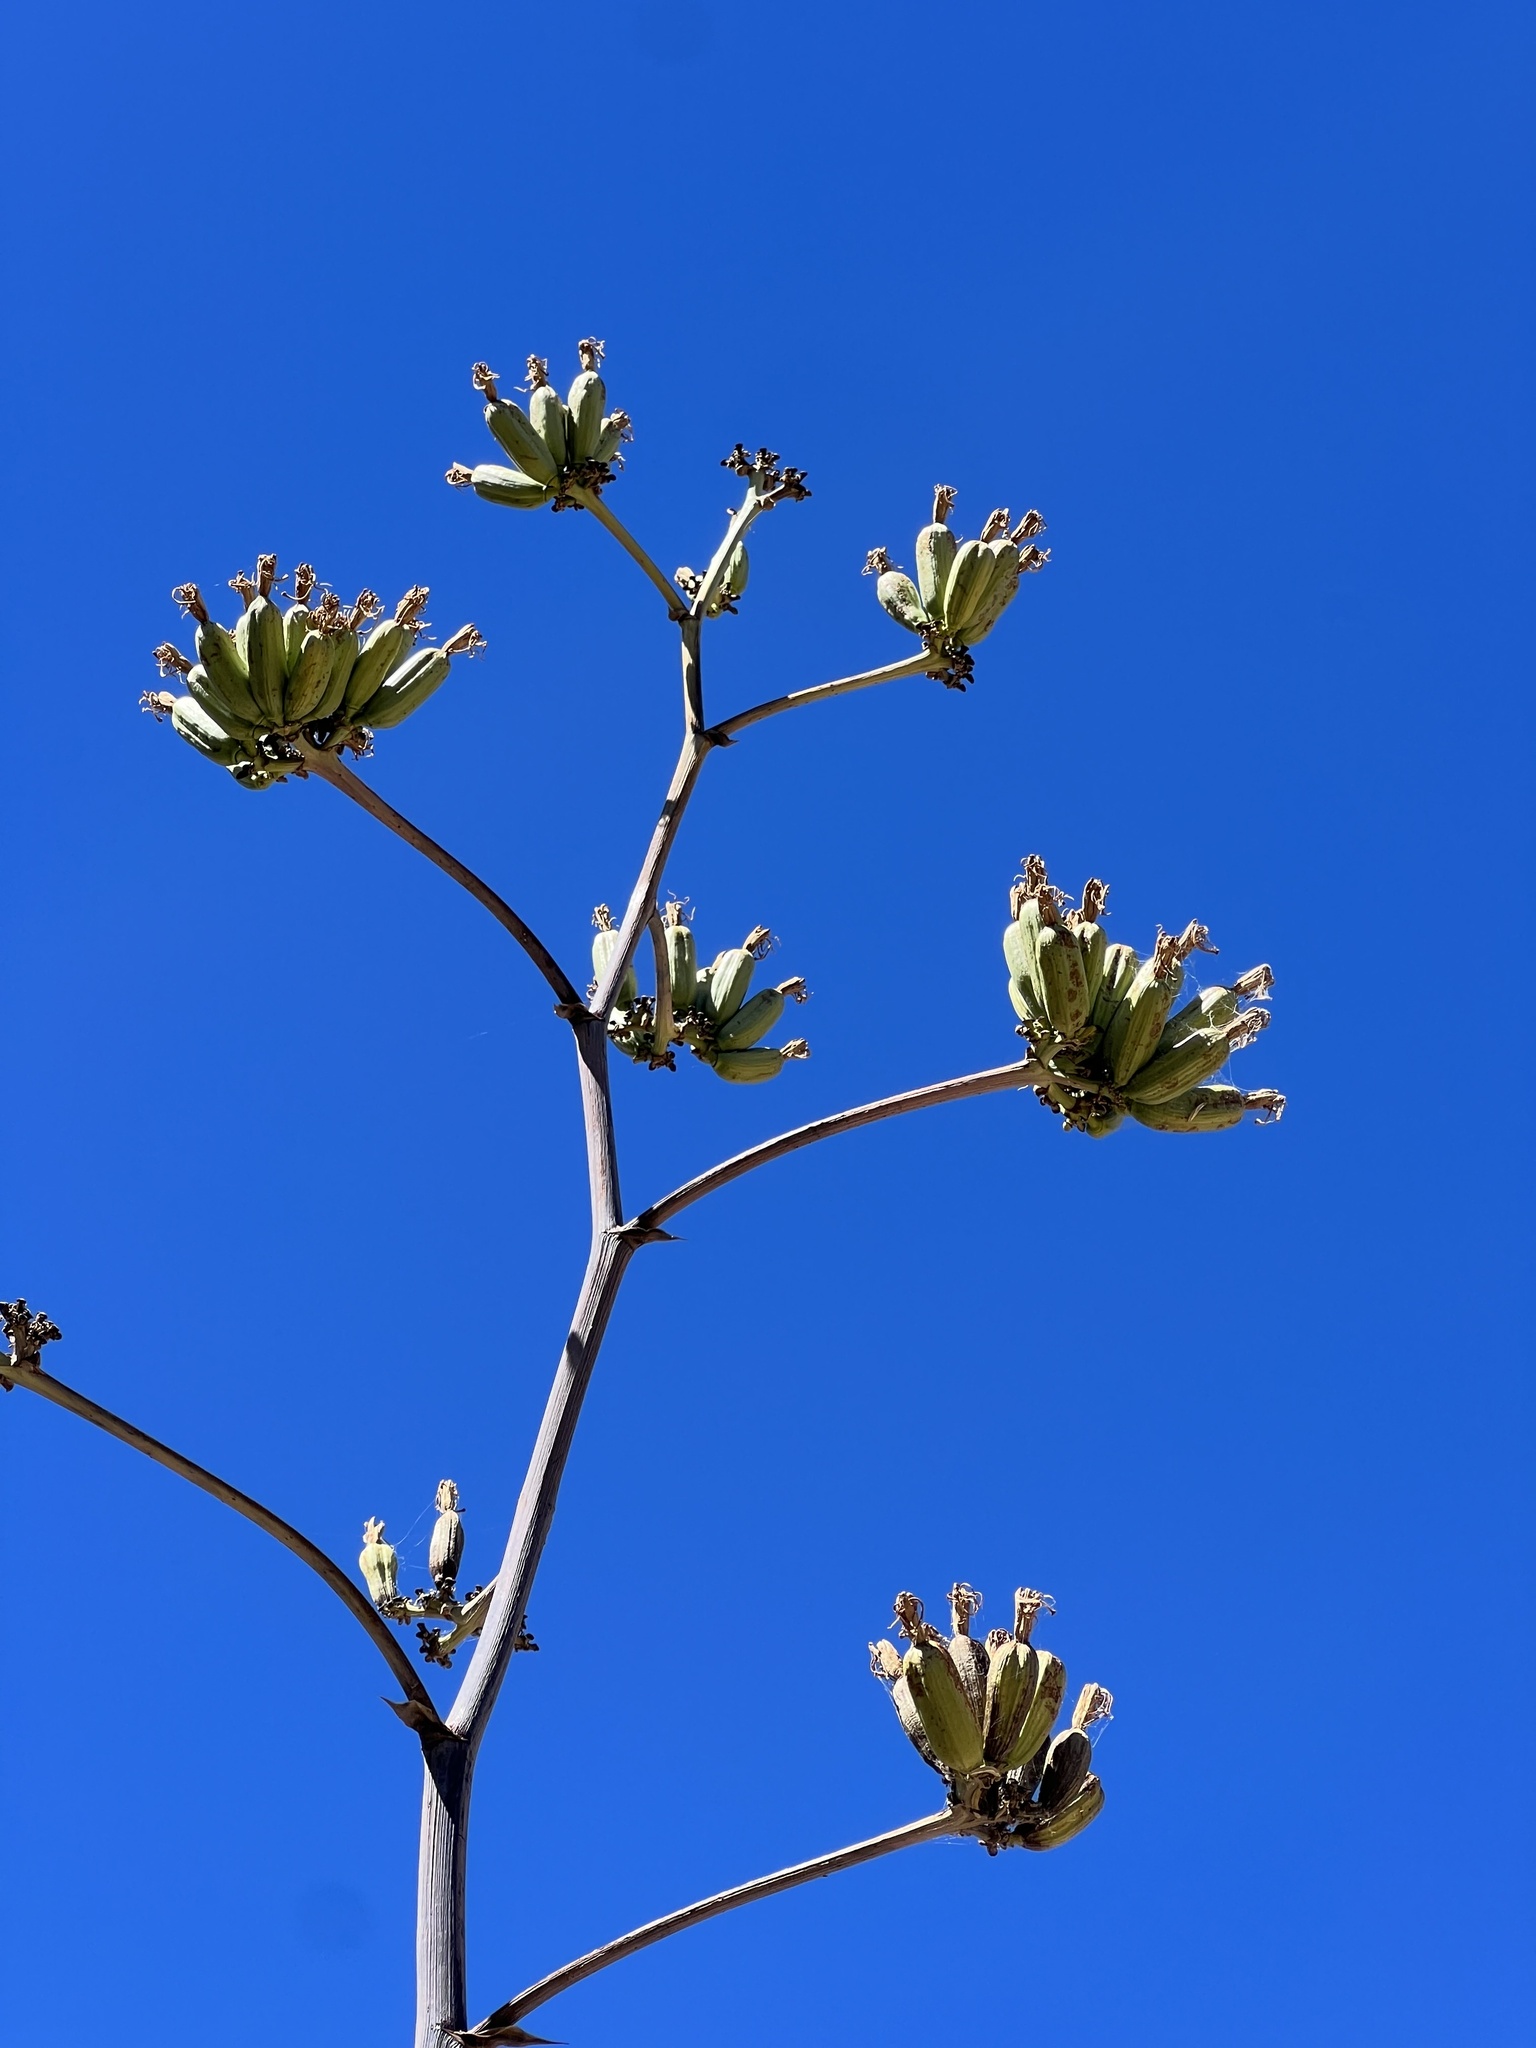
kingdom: Plantae
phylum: Tracheophyta
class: Liliopsida
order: Asparagales
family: Asparagaceae
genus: Agave
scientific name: Agave palmeri
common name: Palmer agave
